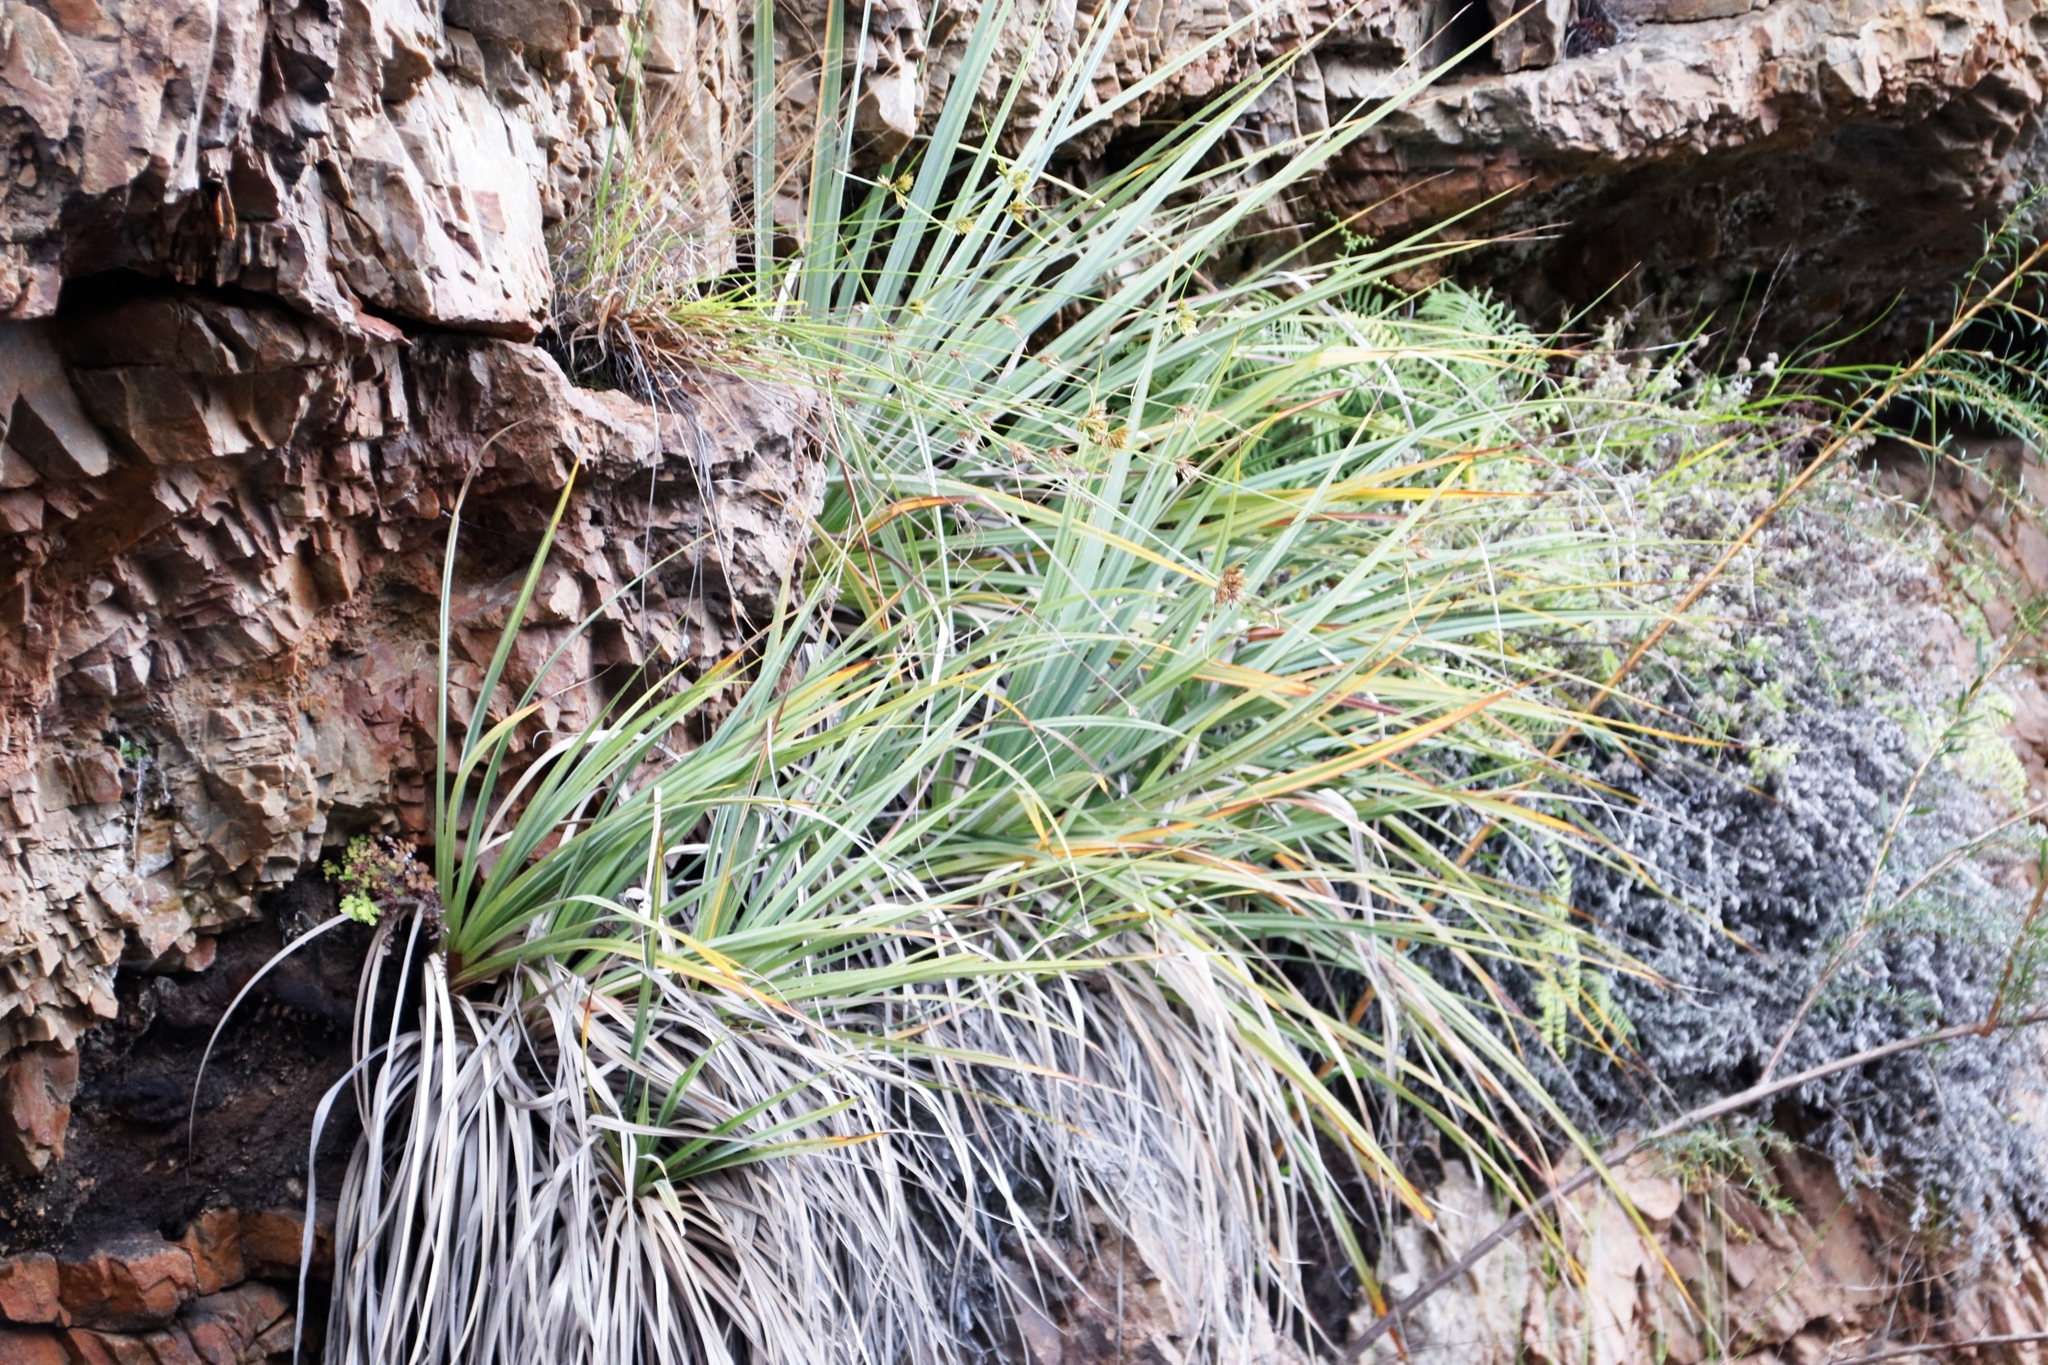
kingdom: Plantae
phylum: Tracheophyta
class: Liliopsida
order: Poales
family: Thurniaceae
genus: Prionium
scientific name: Prionium serratum
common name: Palmiet
